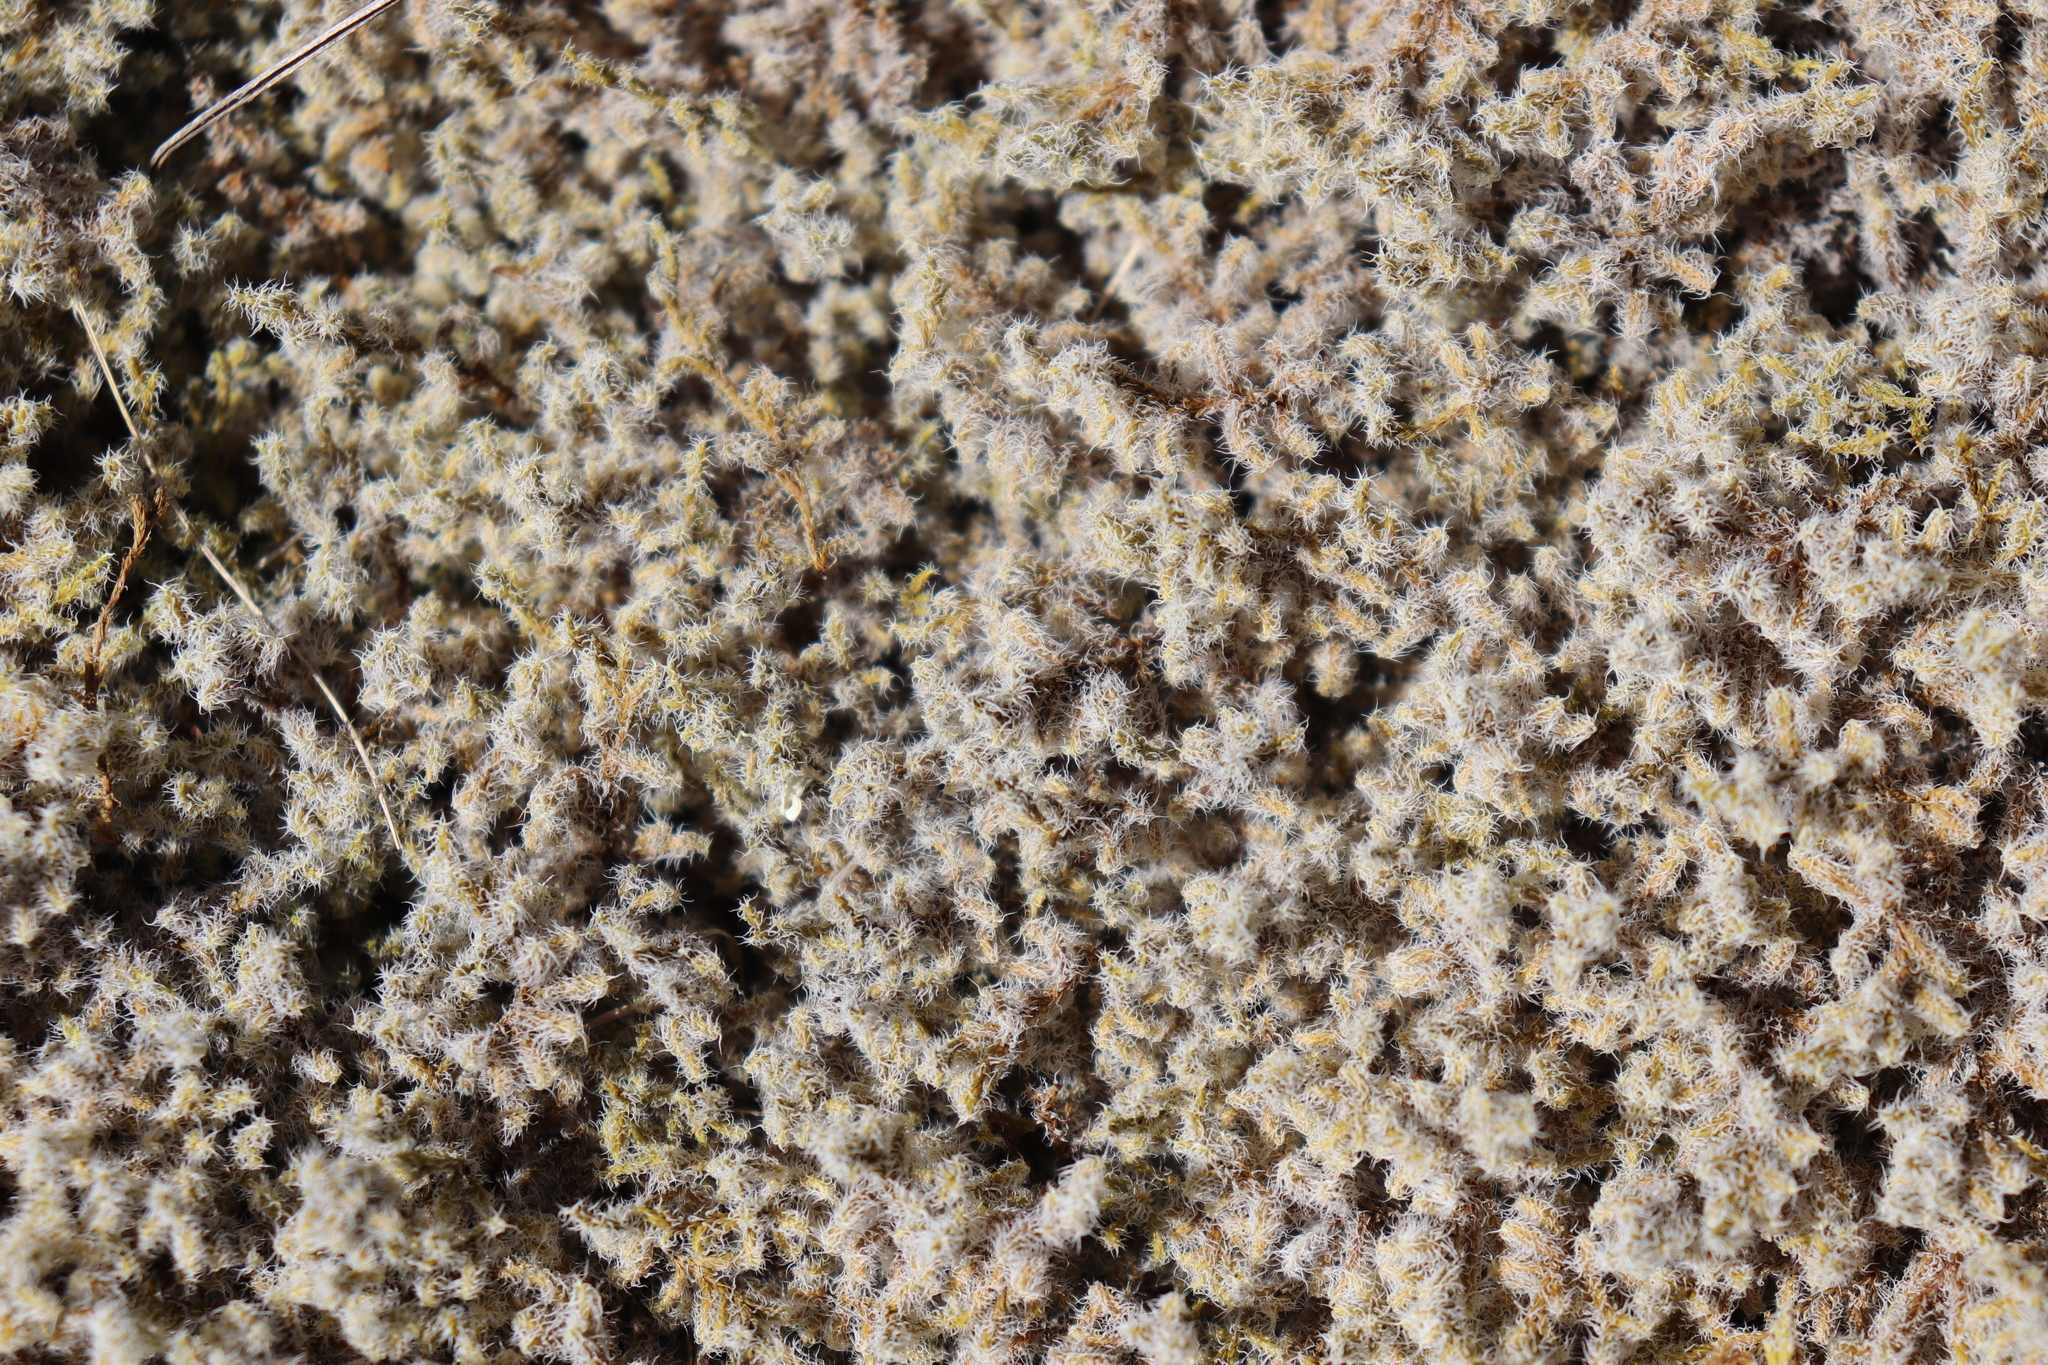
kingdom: Plantae
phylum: Bryophyta
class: Bryopsida
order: Grimmiales
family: Grimmiaceae
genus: Racomitrium
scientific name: Racomitrium lanuginosum
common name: Hoary rock moss
